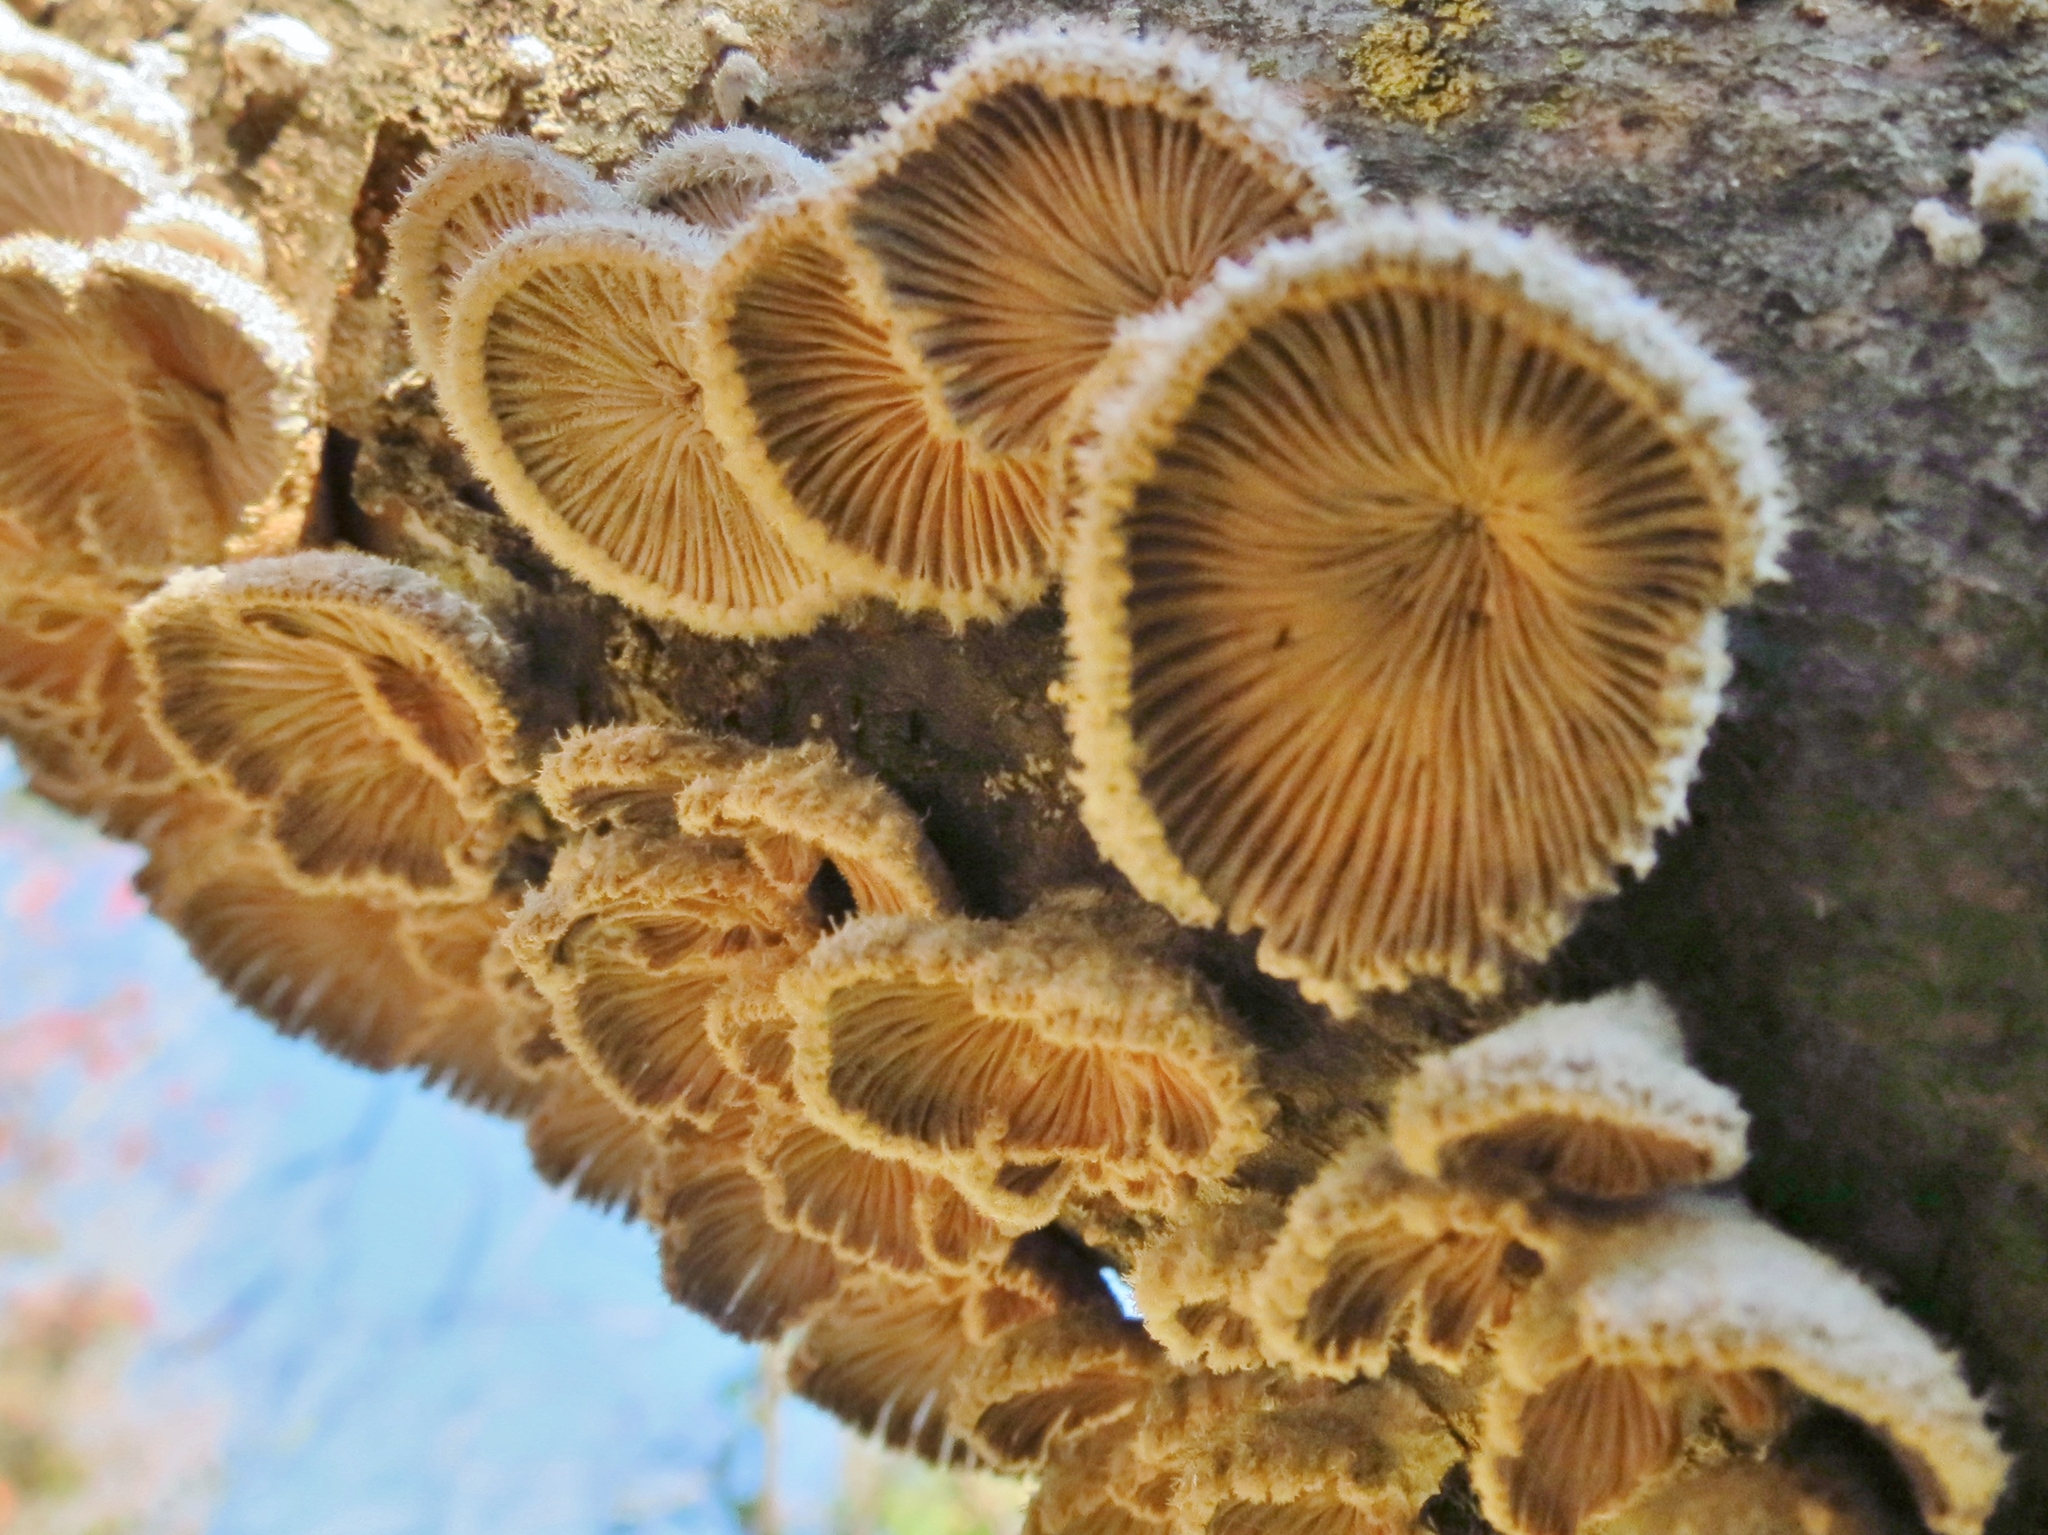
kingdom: Fungi
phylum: Basidiomycota
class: Agaricomycetes
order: Agaricales
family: Schizophyllaceae
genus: Schizophyllum
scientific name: Schizophyllum commune
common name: Common porecrust
